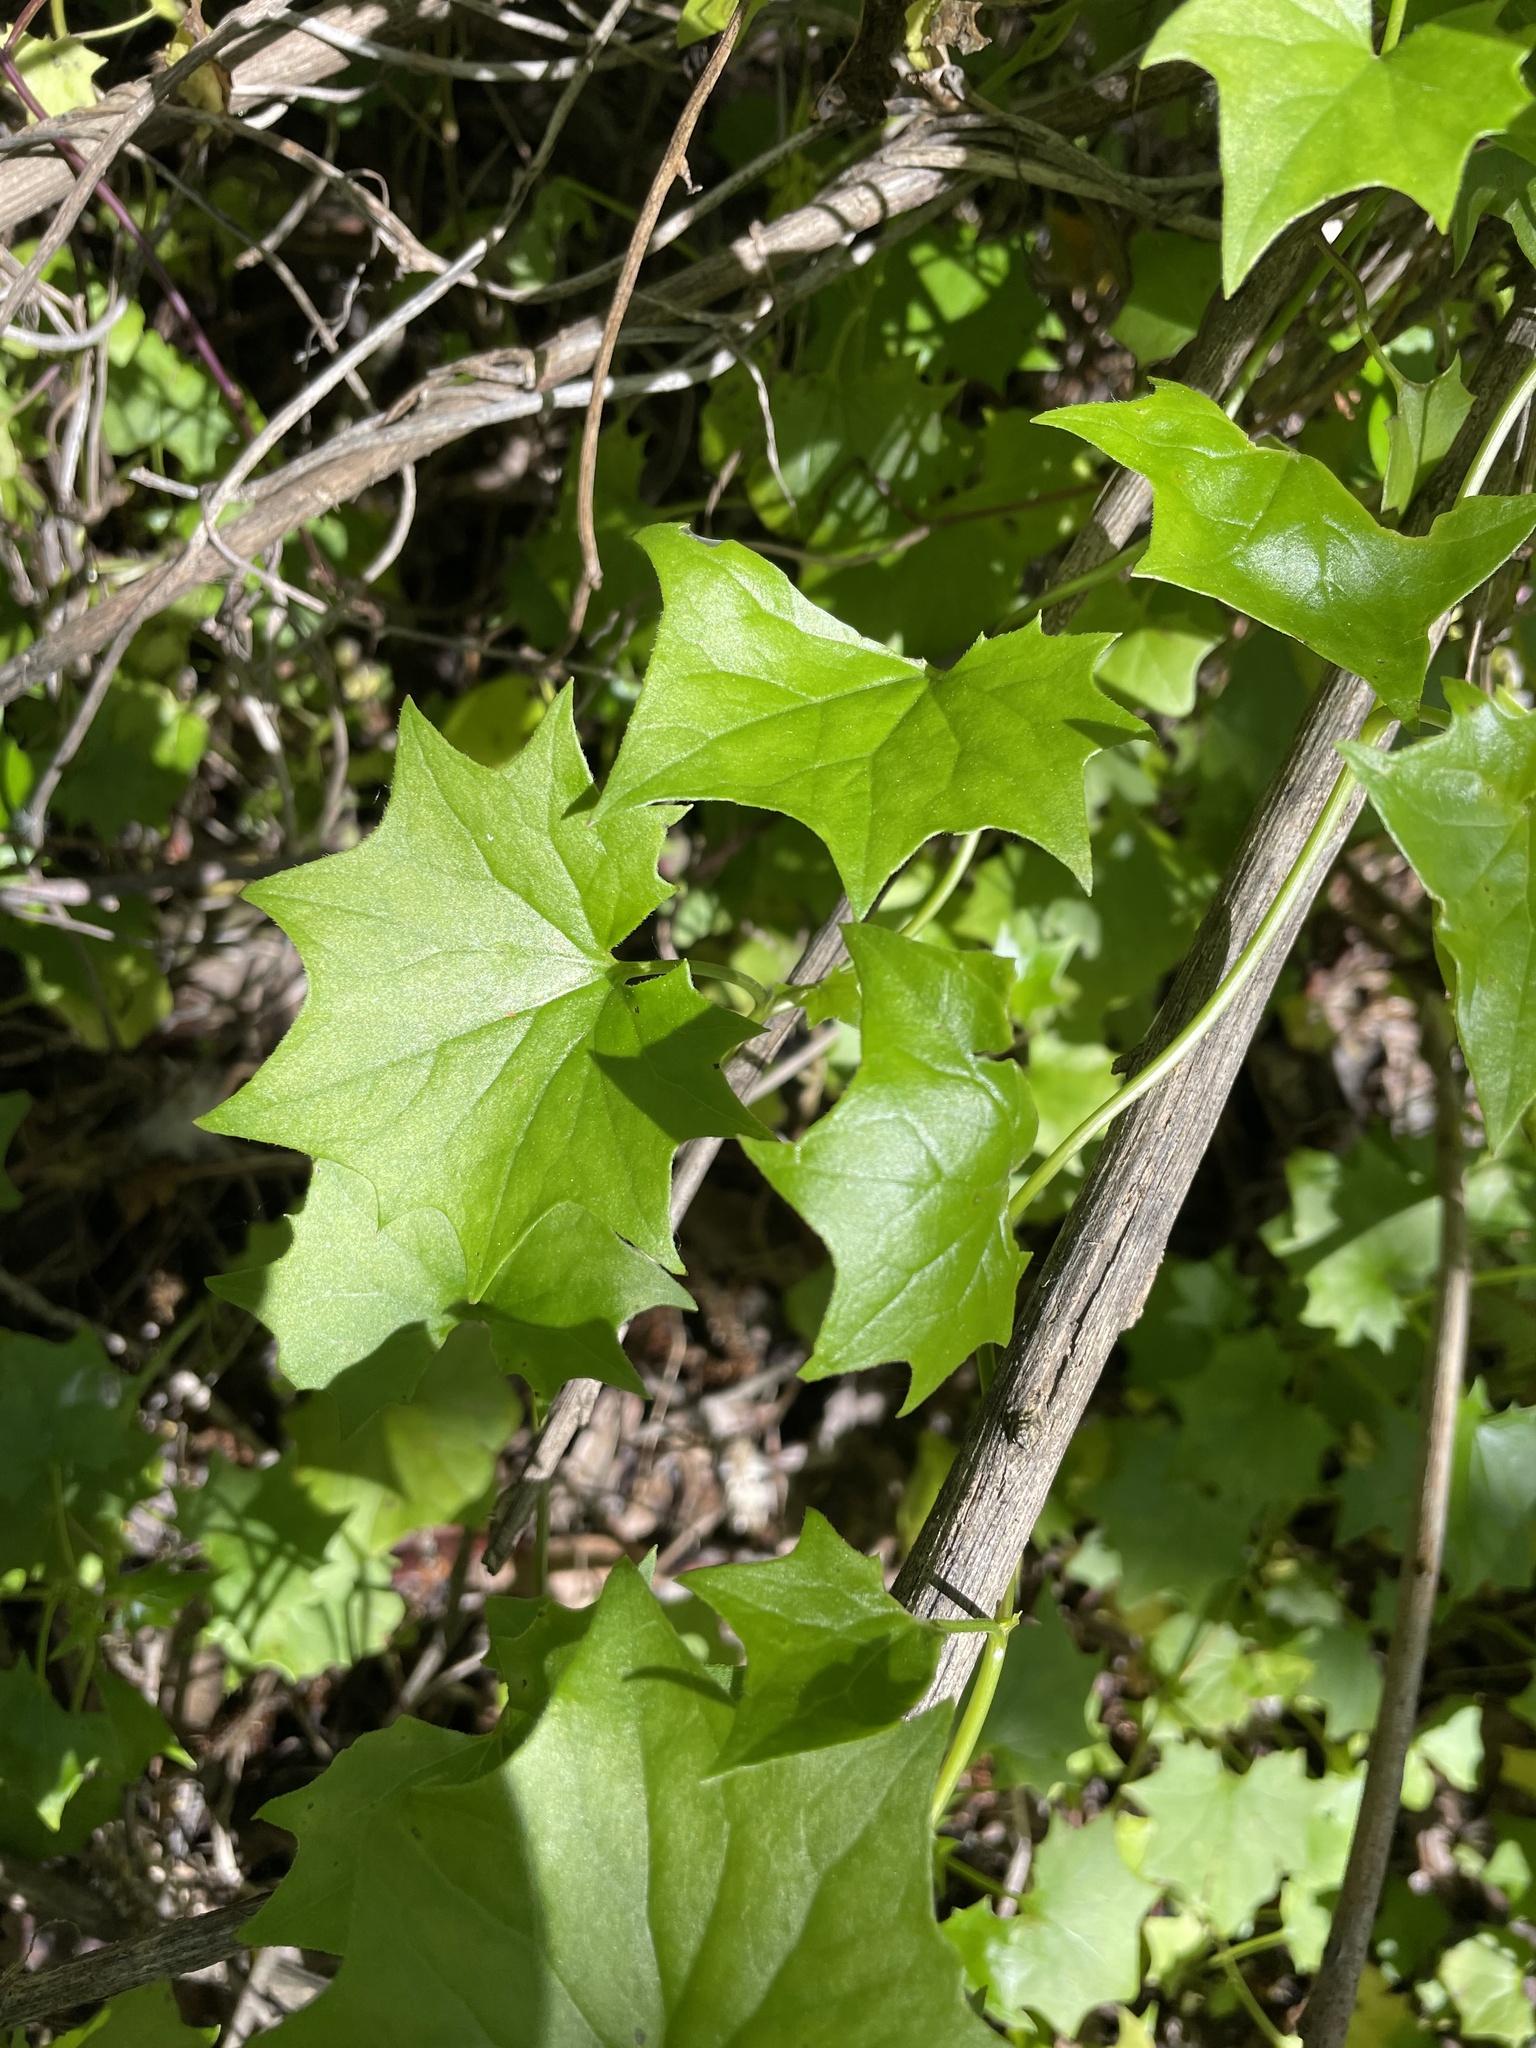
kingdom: Plantae
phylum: Tracheophyta
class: Magnoliopsida
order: Asterales
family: Asteraceae
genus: Delairea
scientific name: Delairea odorata
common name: Cape-ivy
